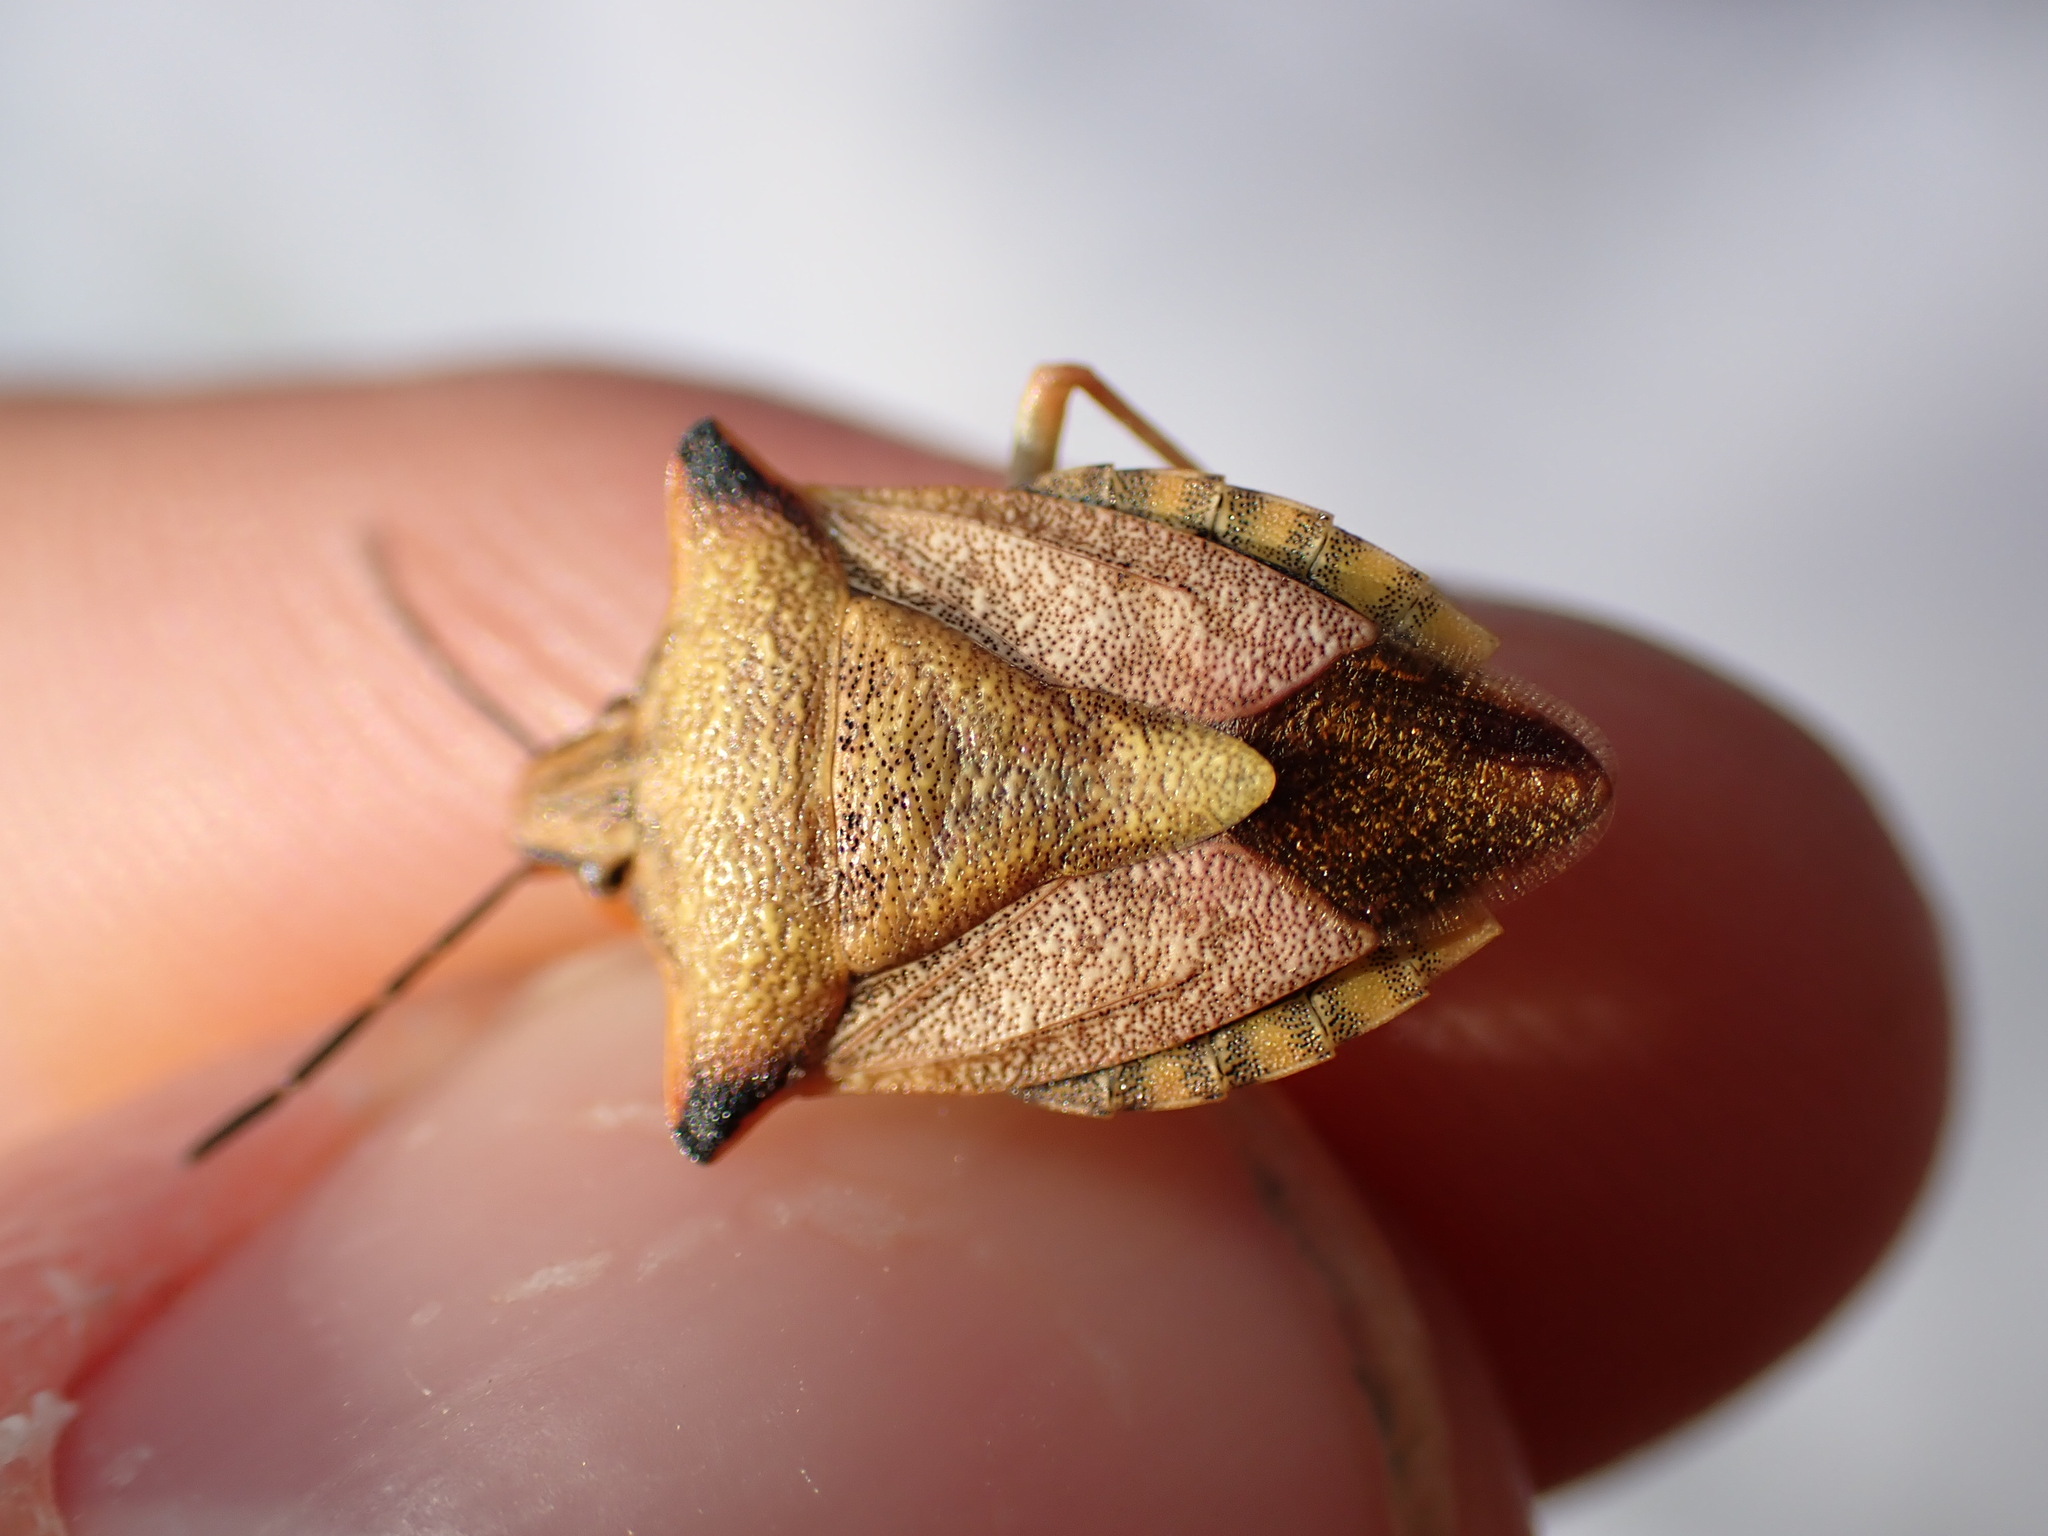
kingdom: Animalia
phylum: Arthropoda
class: Insecta
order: Hemiptera
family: Pentatomidae
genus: Carpocoris
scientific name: Carpocoris mediterraneus
